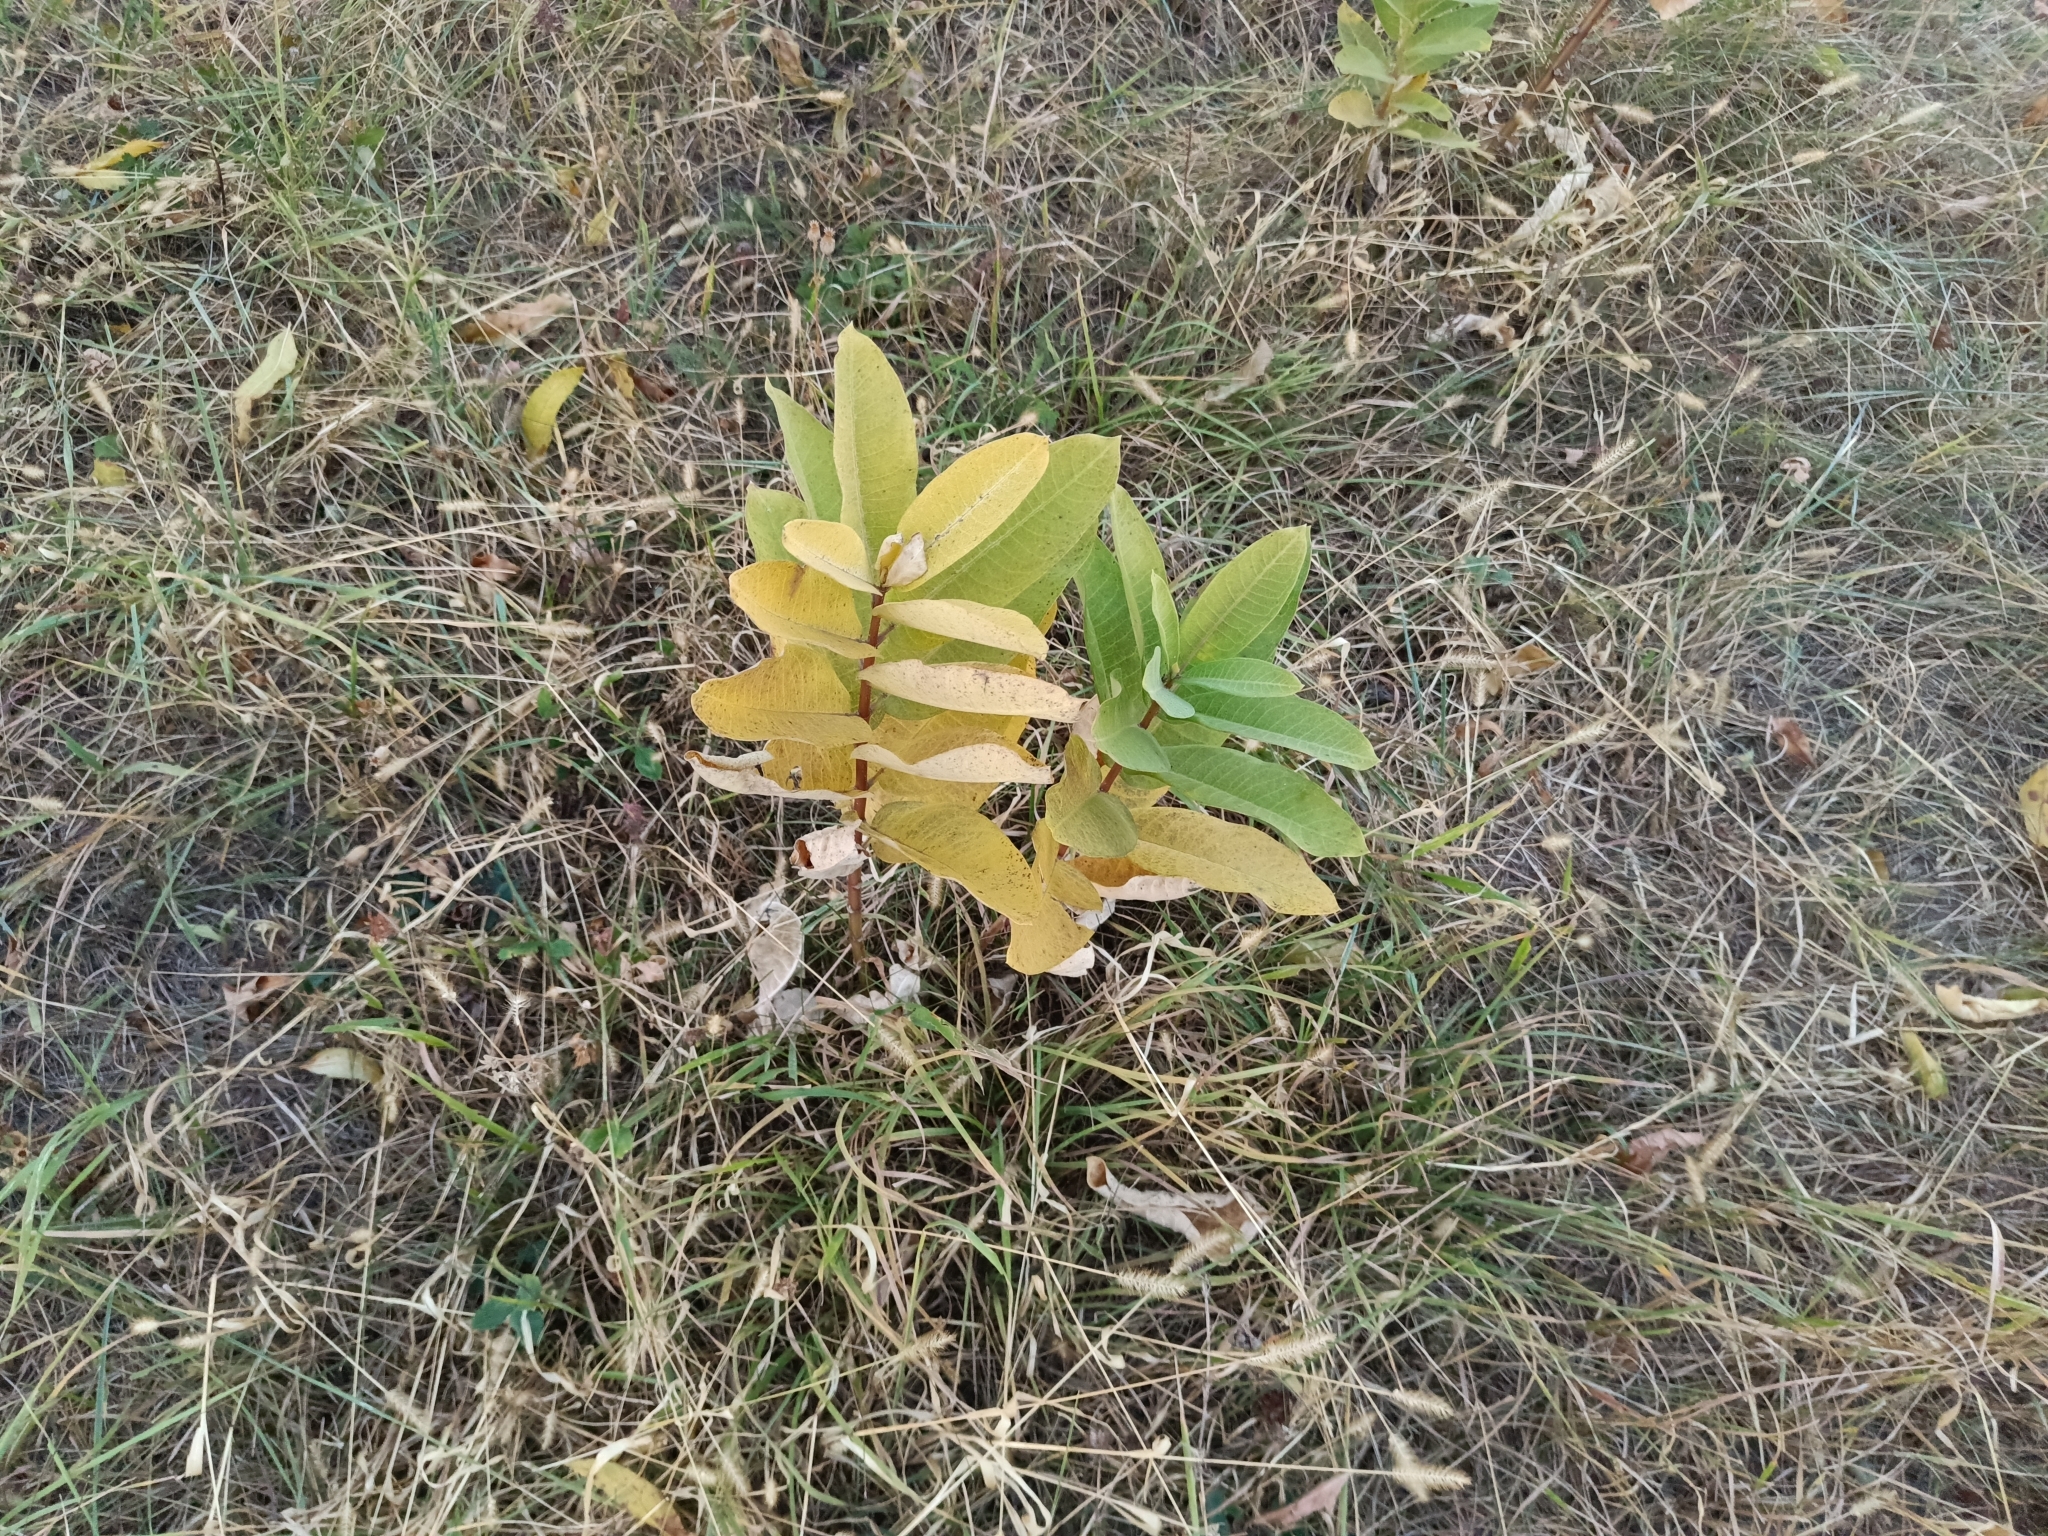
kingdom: Plantae
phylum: Tracheophyta
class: Magnoliopsida
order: Gentianales
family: Apocynaceae
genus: Asclepias
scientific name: Asclepias syriaca
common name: Common milkweed
